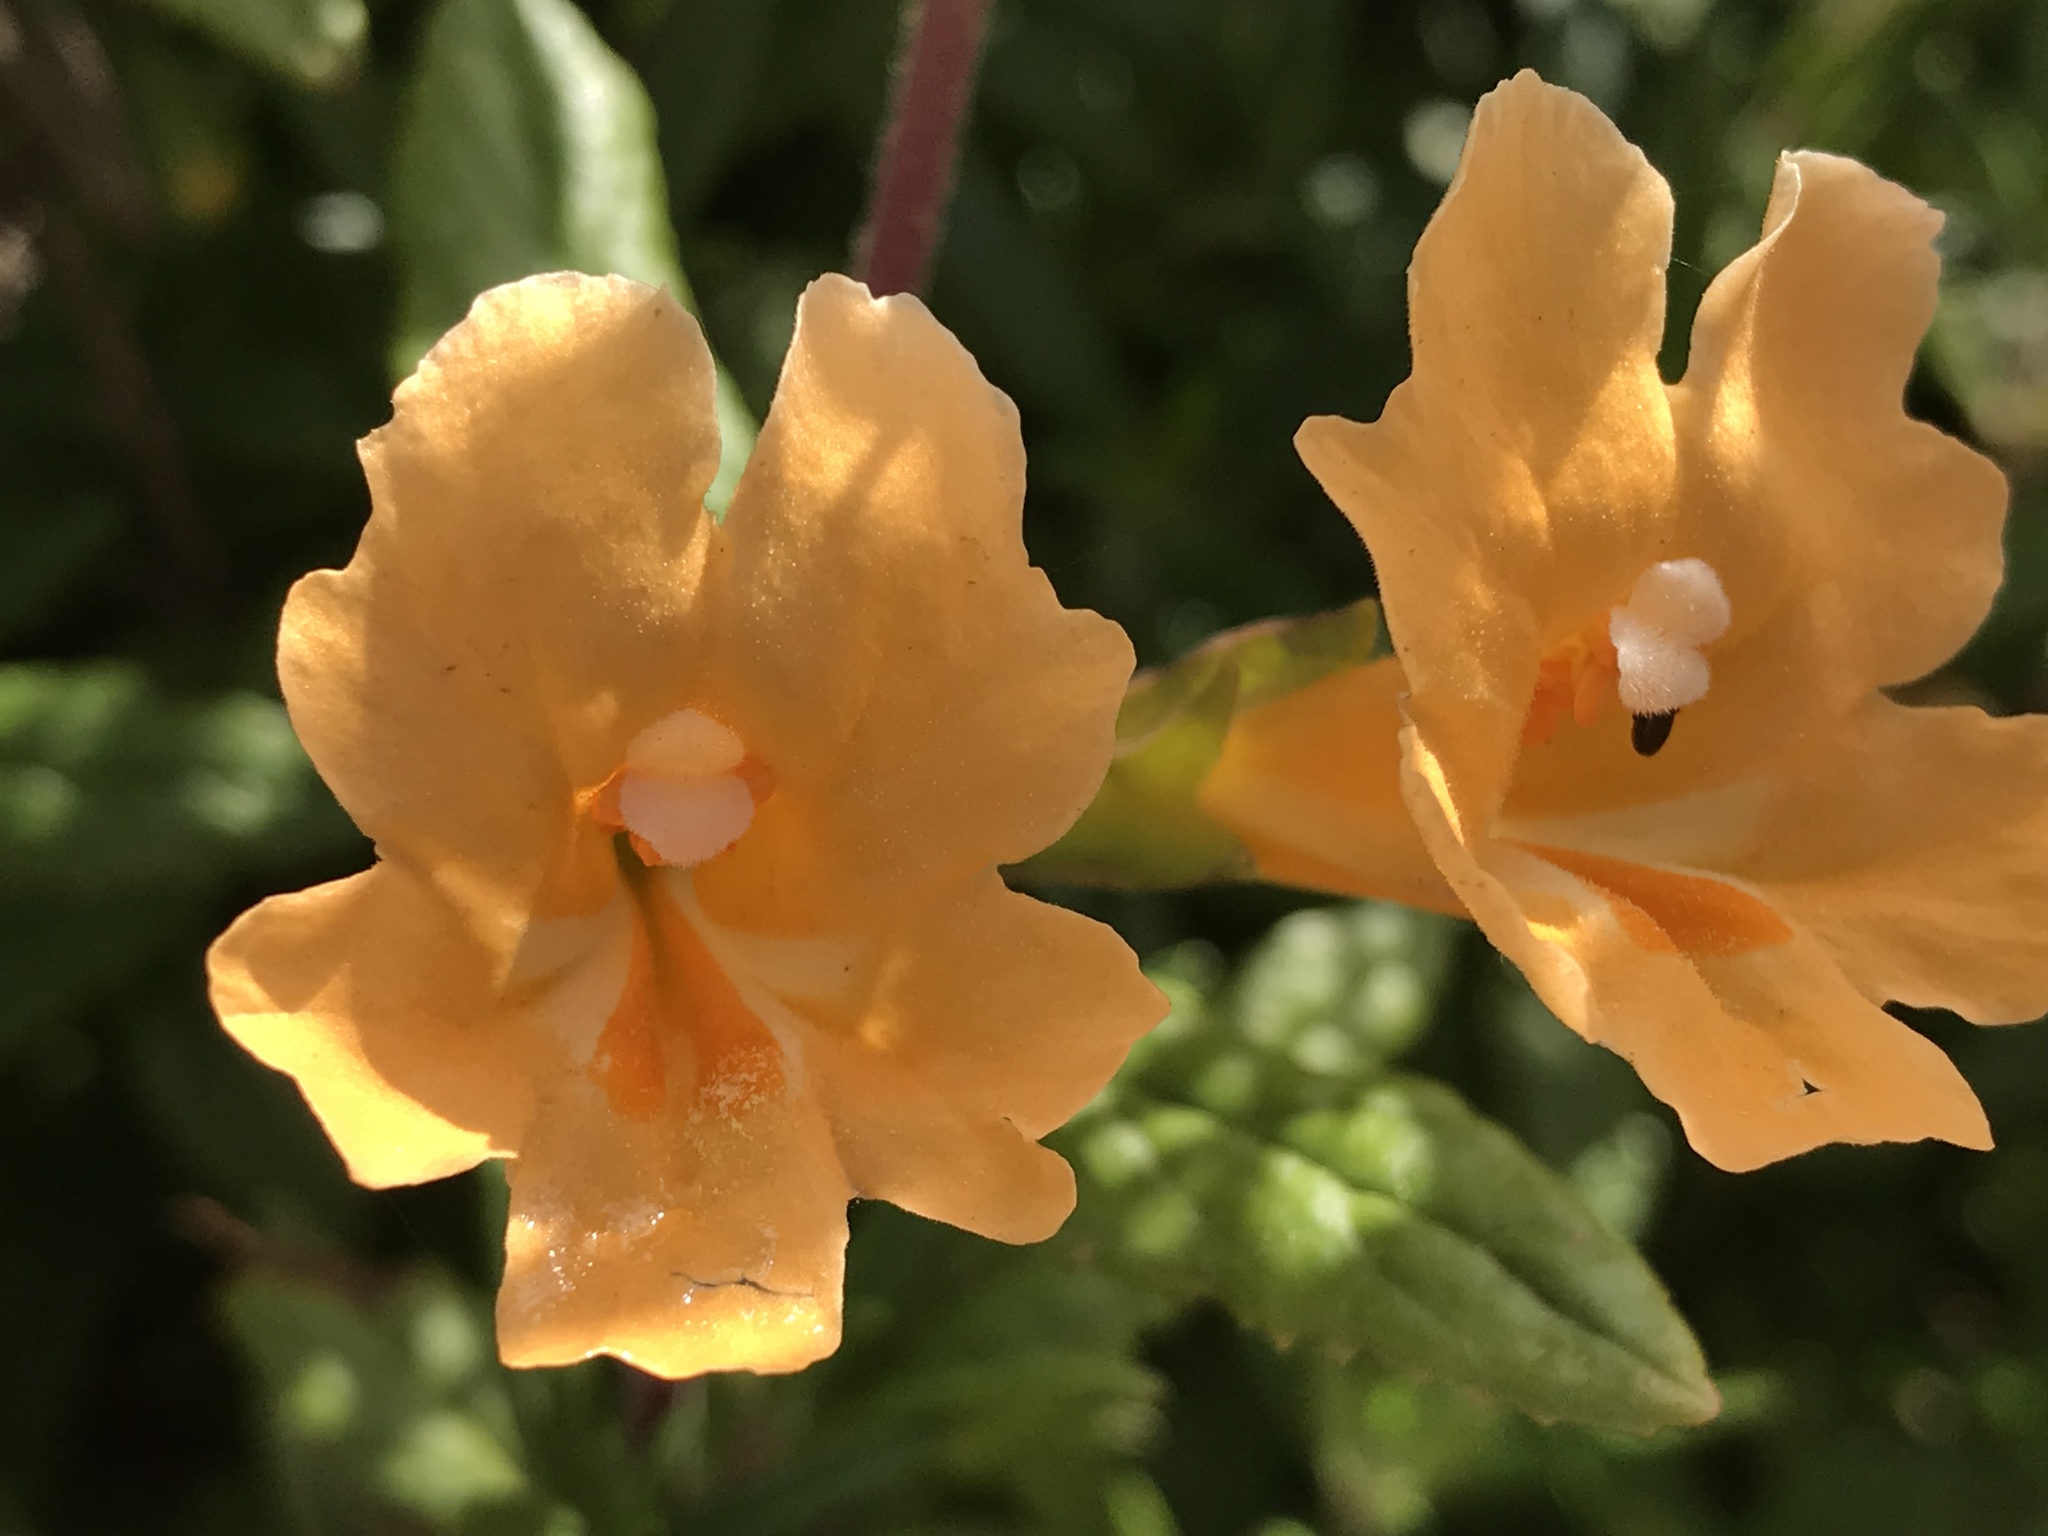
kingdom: Plantae
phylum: Tracheophyta
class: Magnoliopsida
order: Lamiales
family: Phrymaceae
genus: Diplacus
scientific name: Diplacus aurantiacus
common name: Bush monkey-flower
